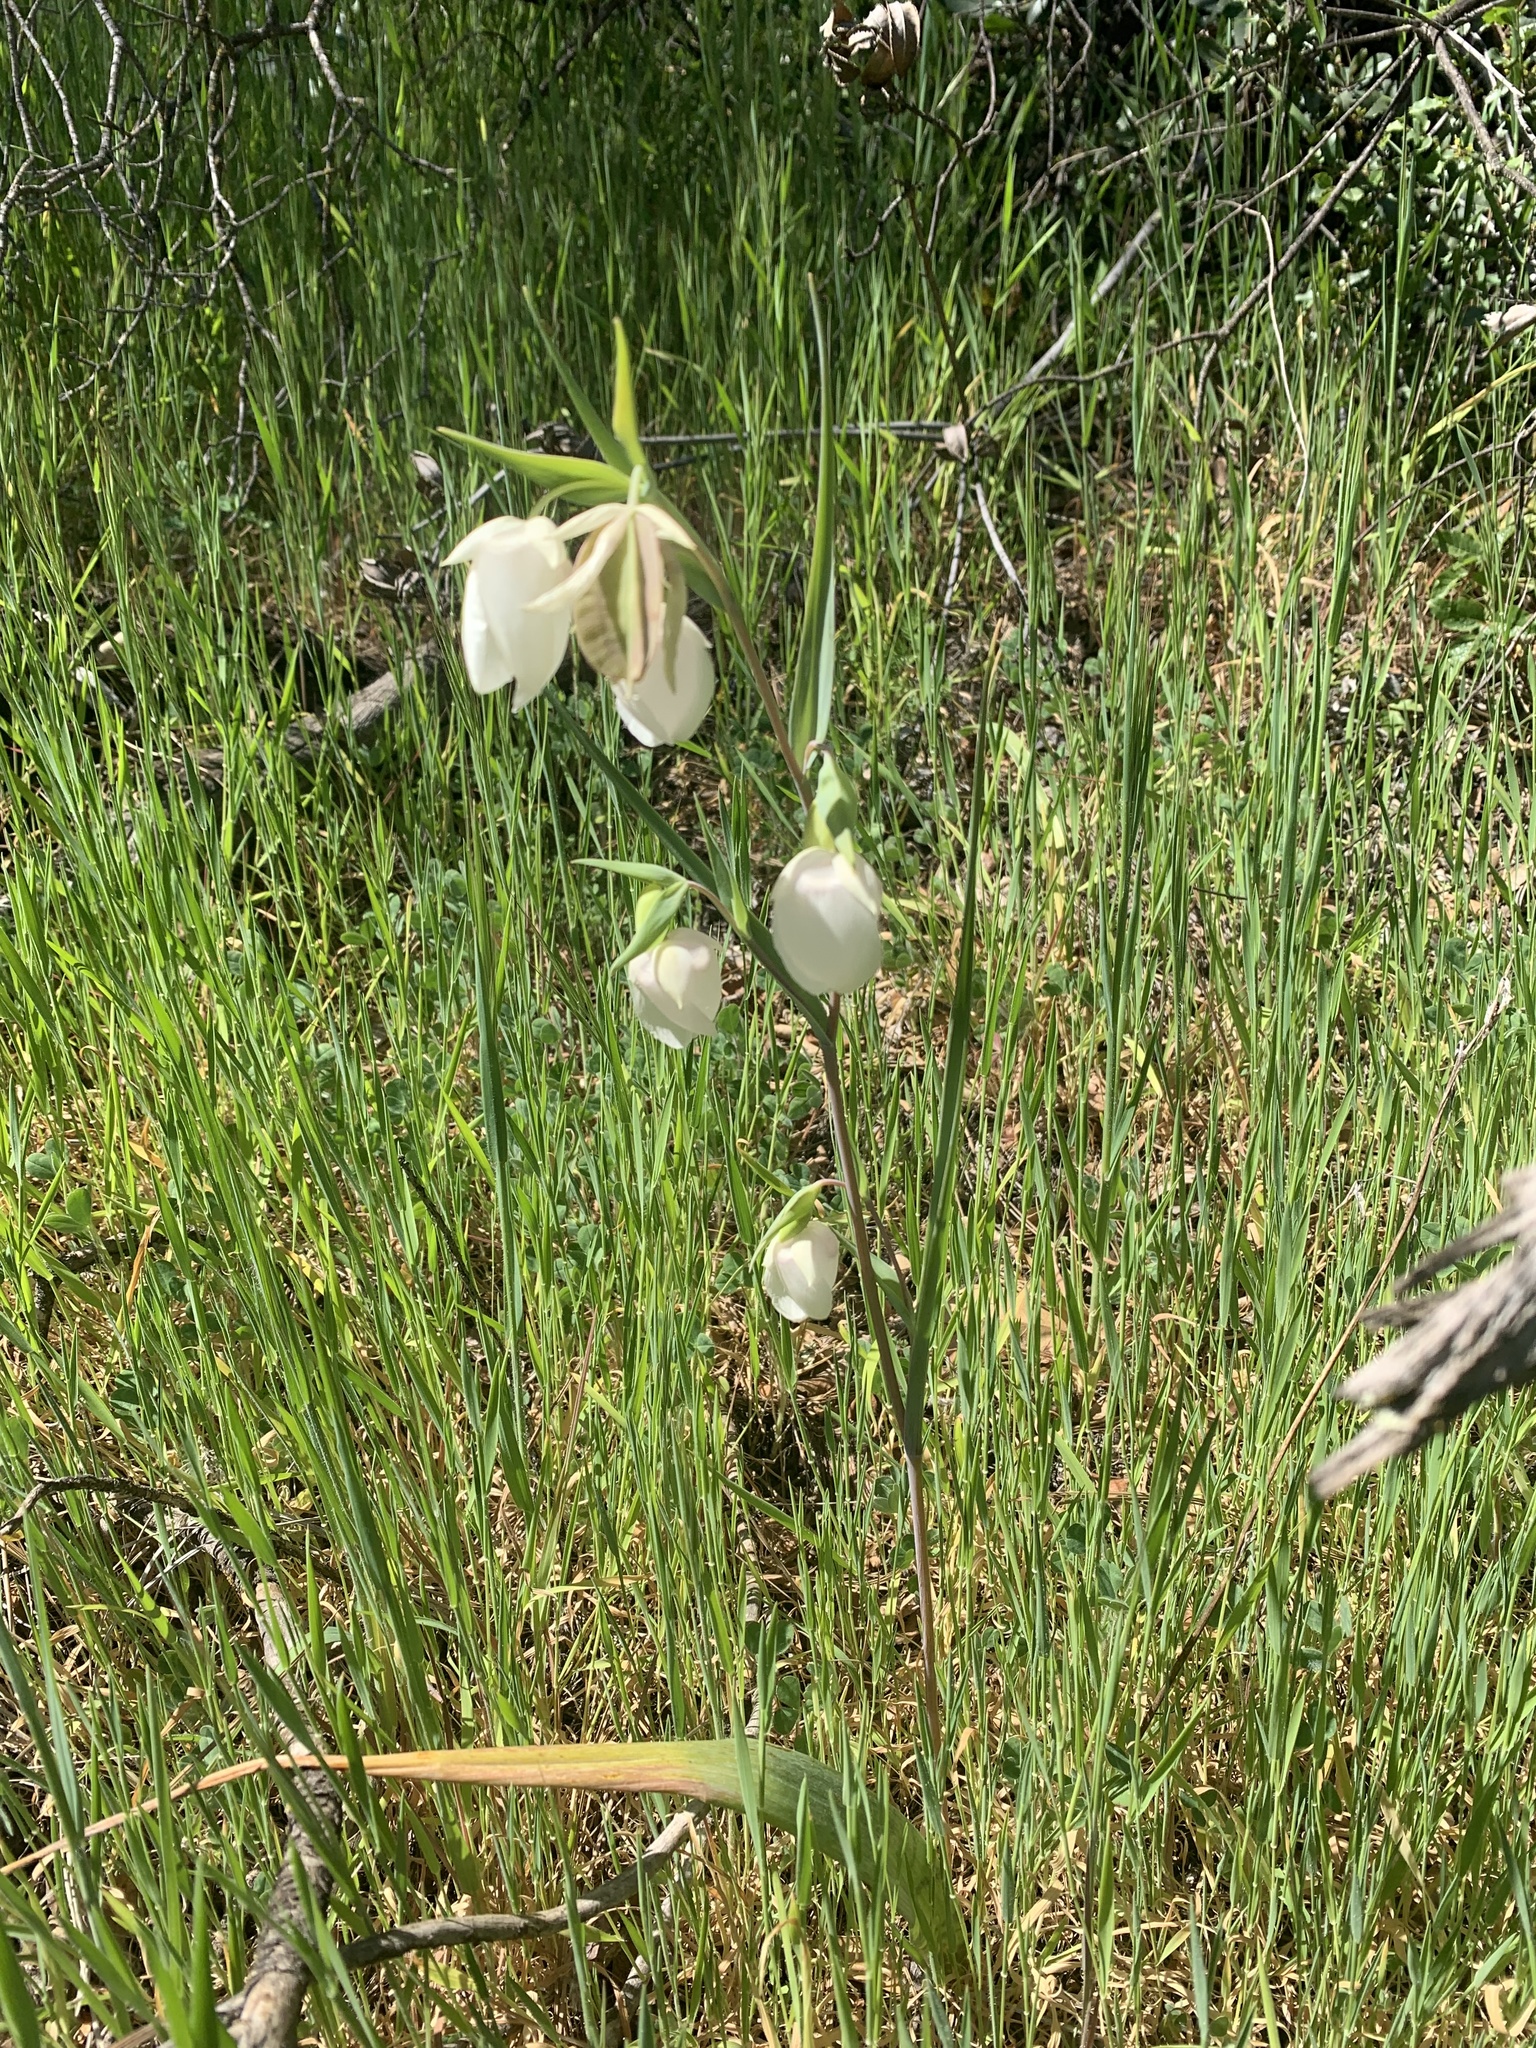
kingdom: Plantae
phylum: Tracheophyta
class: Liliopsida
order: Liliales
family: Liliaceae
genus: Calochortus
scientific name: Calochortus albus
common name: Fairy-lantern
